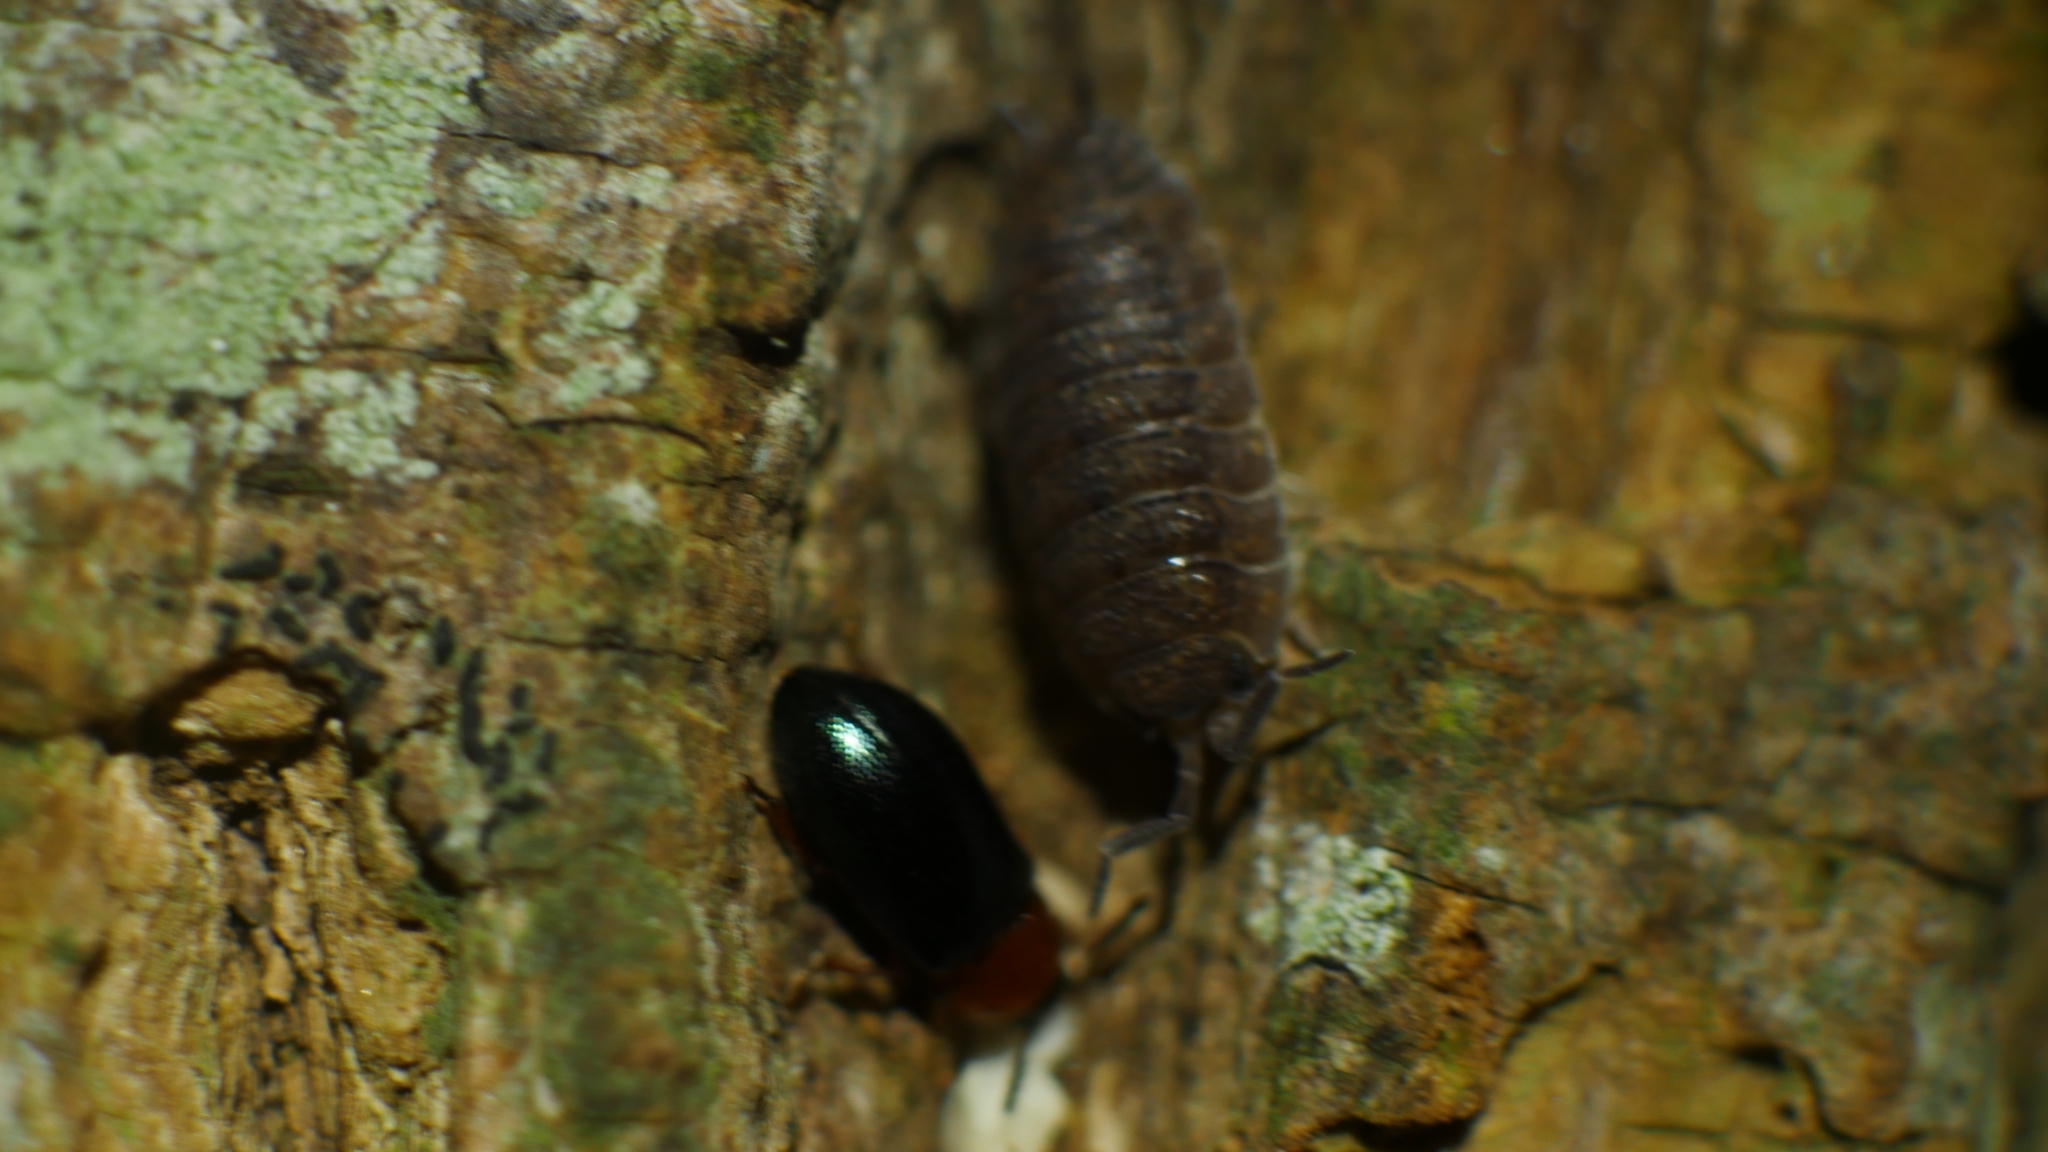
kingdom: Animalia
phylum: Arthropoda
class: Malacostraca
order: Isopoda
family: Porcellionidae
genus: Porcellio
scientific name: Porcellio scaber
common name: Common rough woodlouse
